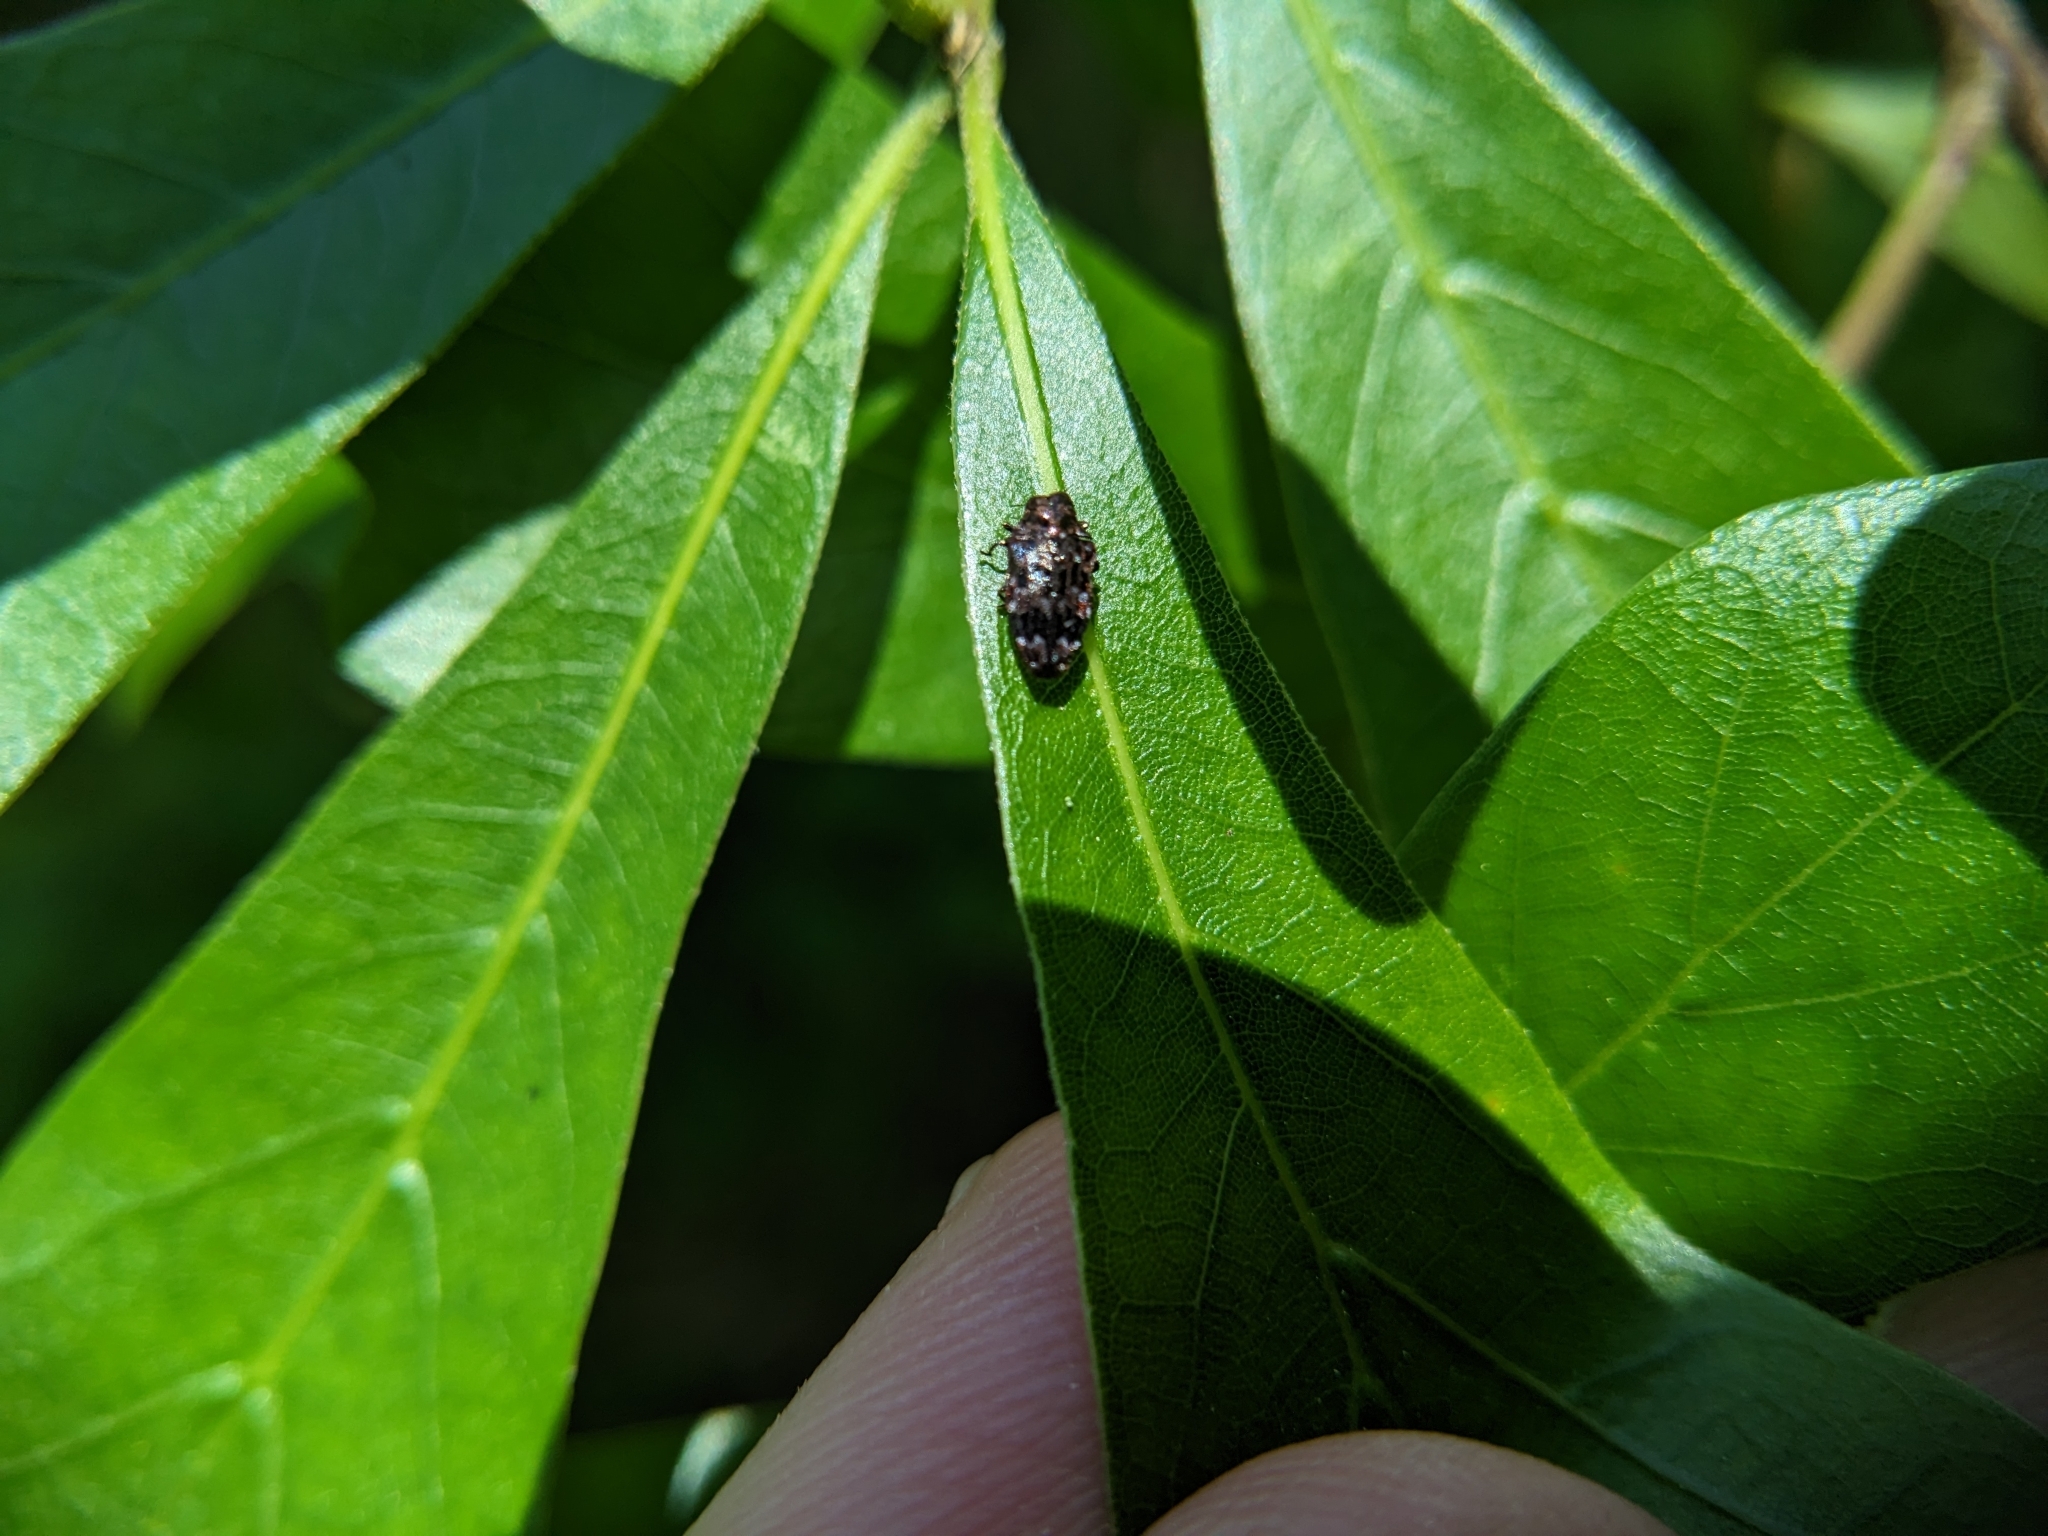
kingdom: Animalia
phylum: Arthropoda
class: Insecta
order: Coleoptera
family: Buprestidae
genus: Brachys
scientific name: Brachys ovatus
